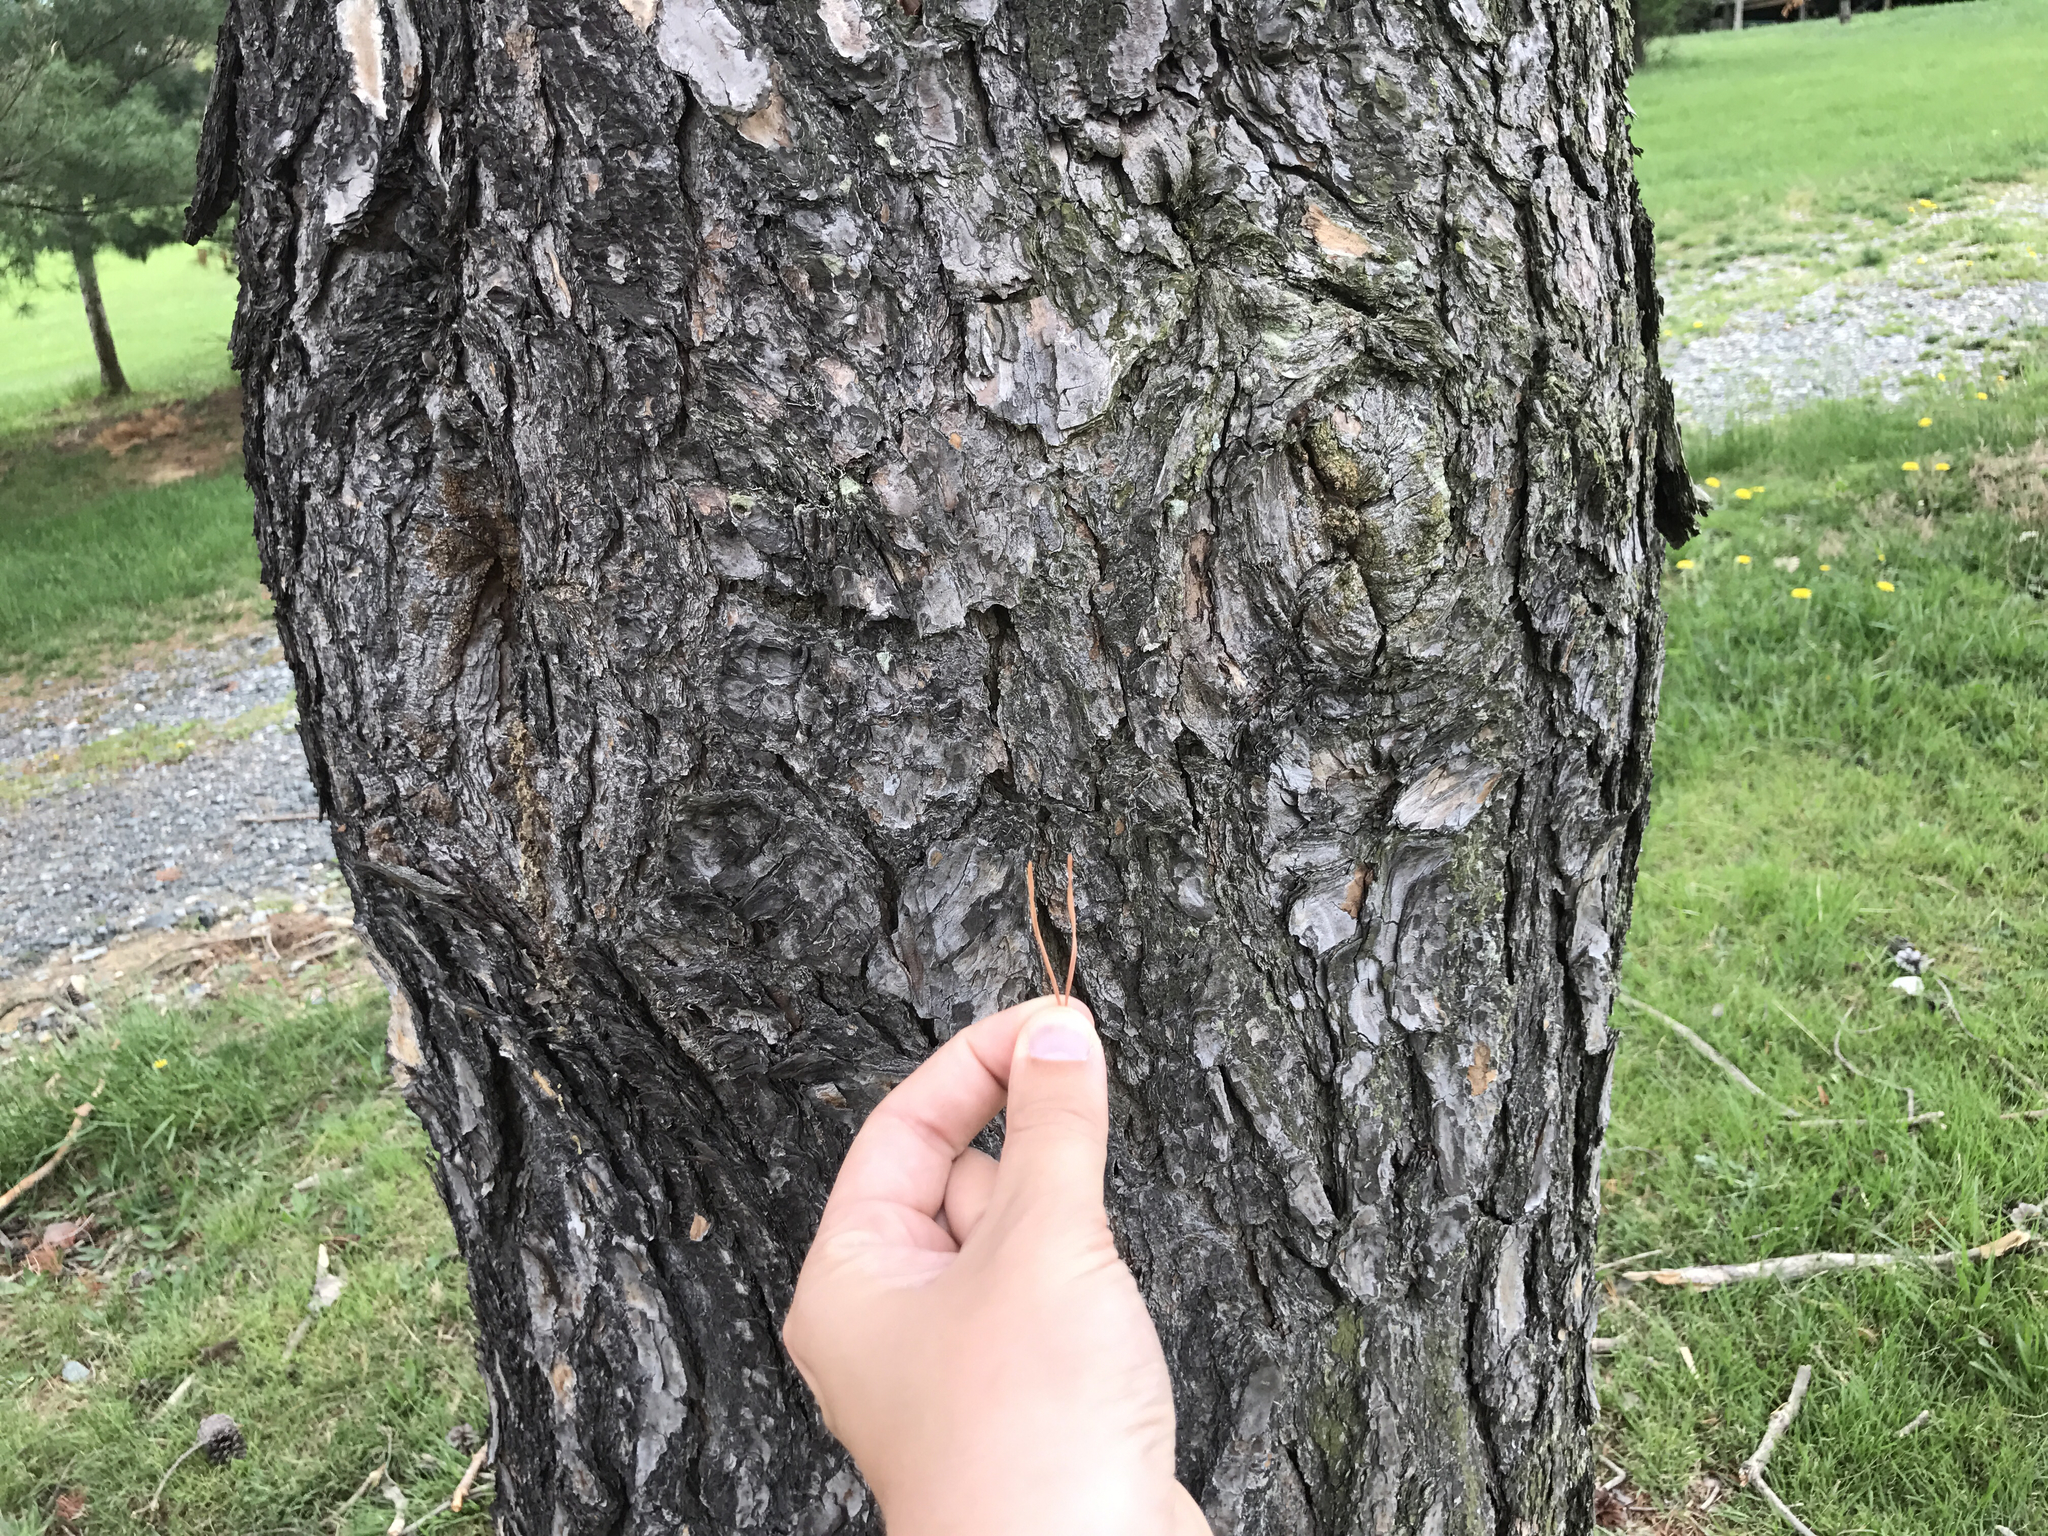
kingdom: Plantae
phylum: Tracheophyta
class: Pinopsida
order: Pinales
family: Pinaceae
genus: Pinus
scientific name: Pinus virginiana
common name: Scrub pine
